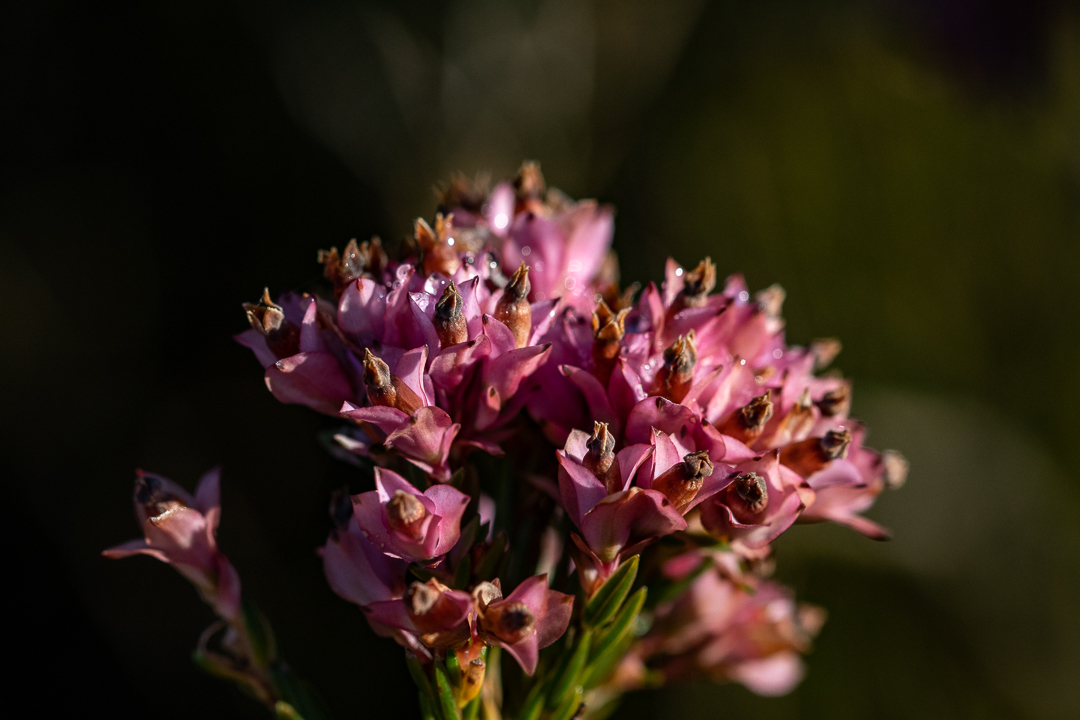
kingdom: Plantae
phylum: Tracheophyta
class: Magnoliopsida
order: Ericales
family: Ericaceae
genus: Erica
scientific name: Erica corifolia
